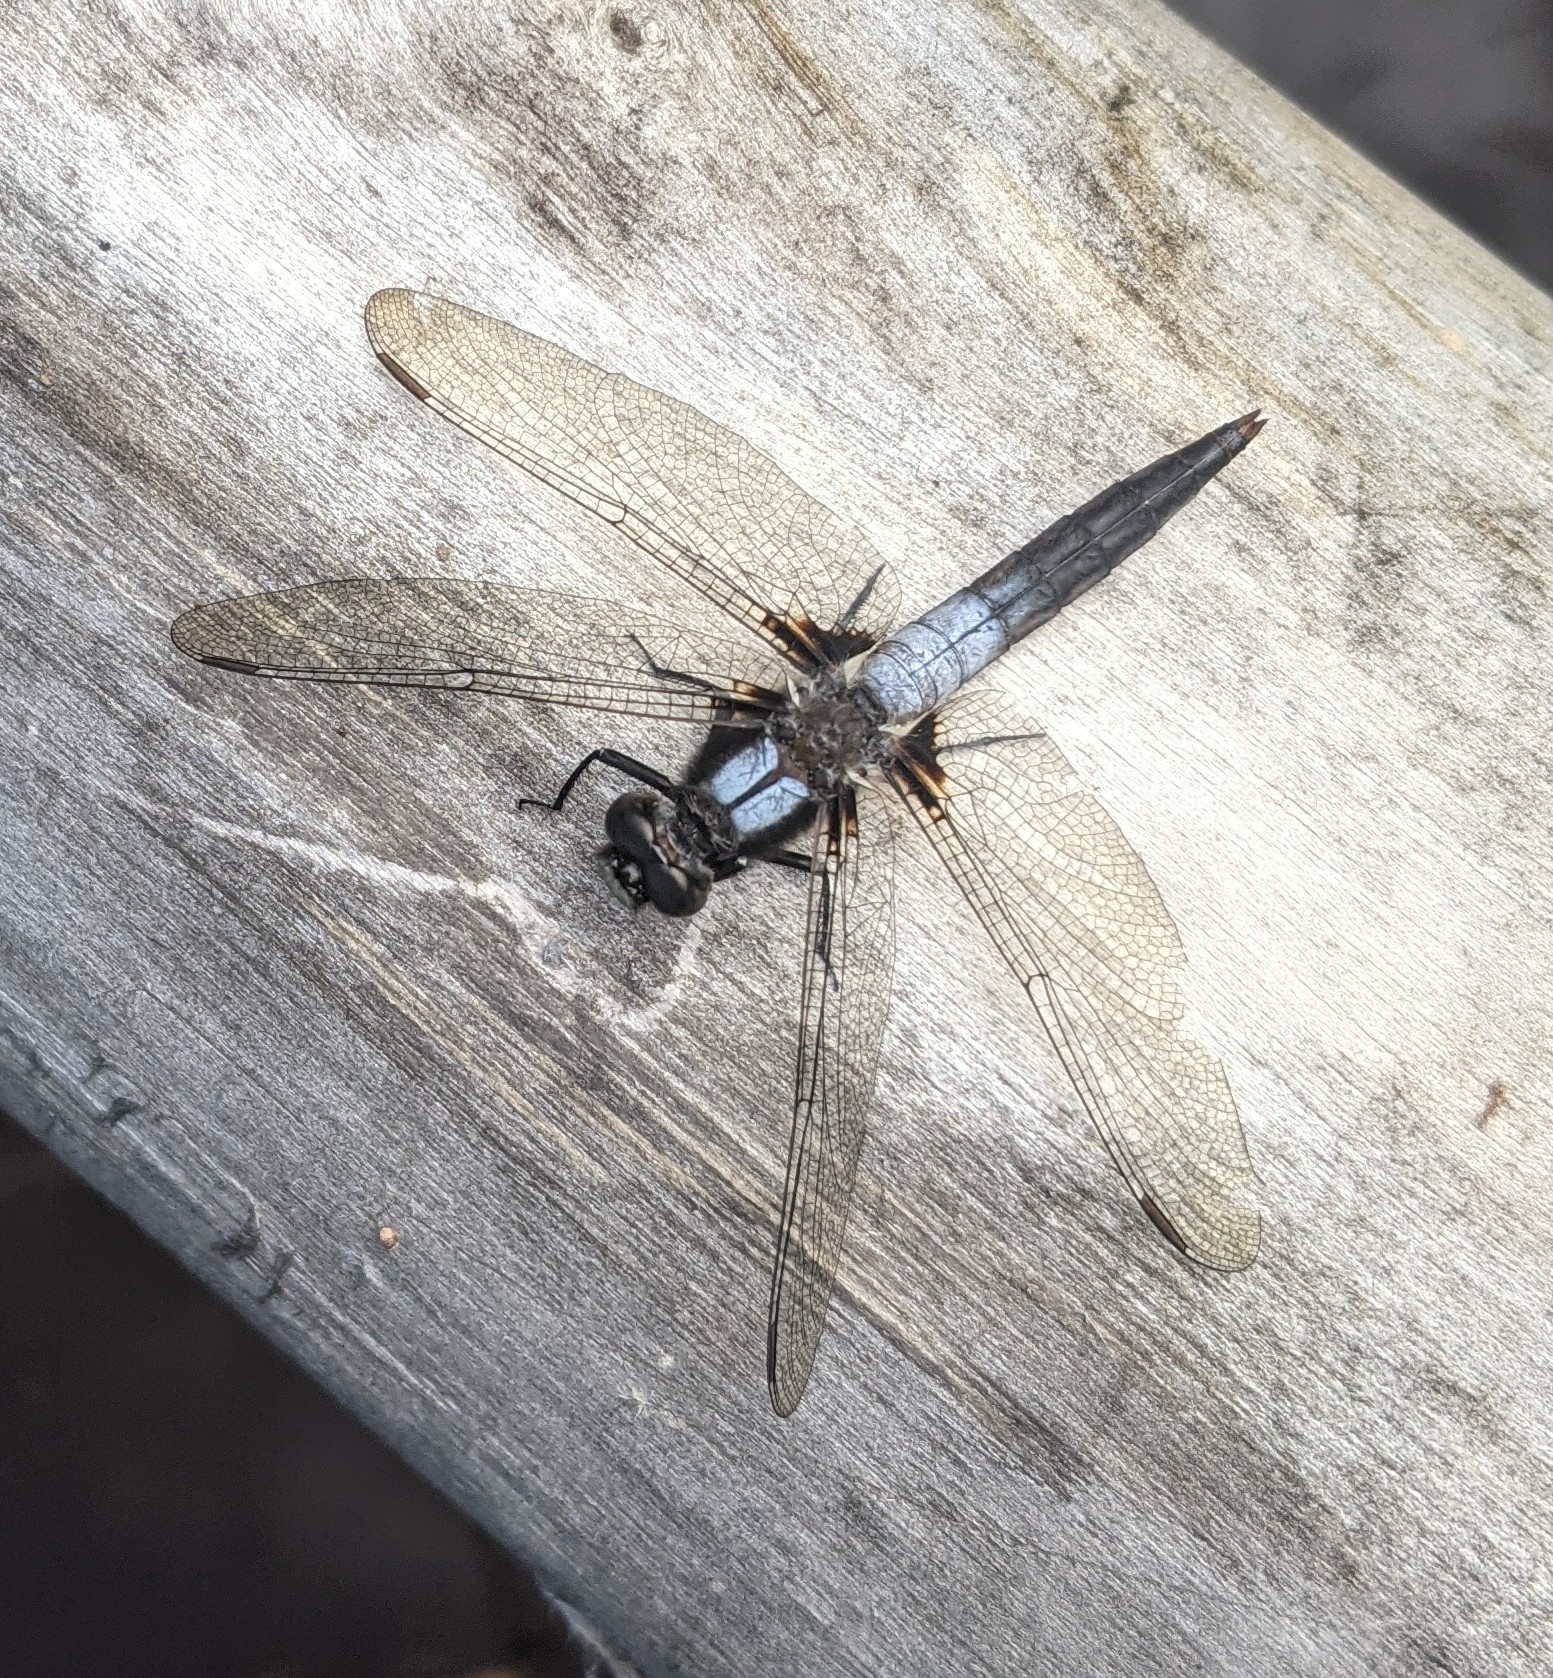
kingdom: Animalia
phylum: Arthropoda
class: Insecta
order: Odonata
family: Libellulidae
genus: Ladona
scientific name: Ladona julia
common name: Chalk-fronted corporal
